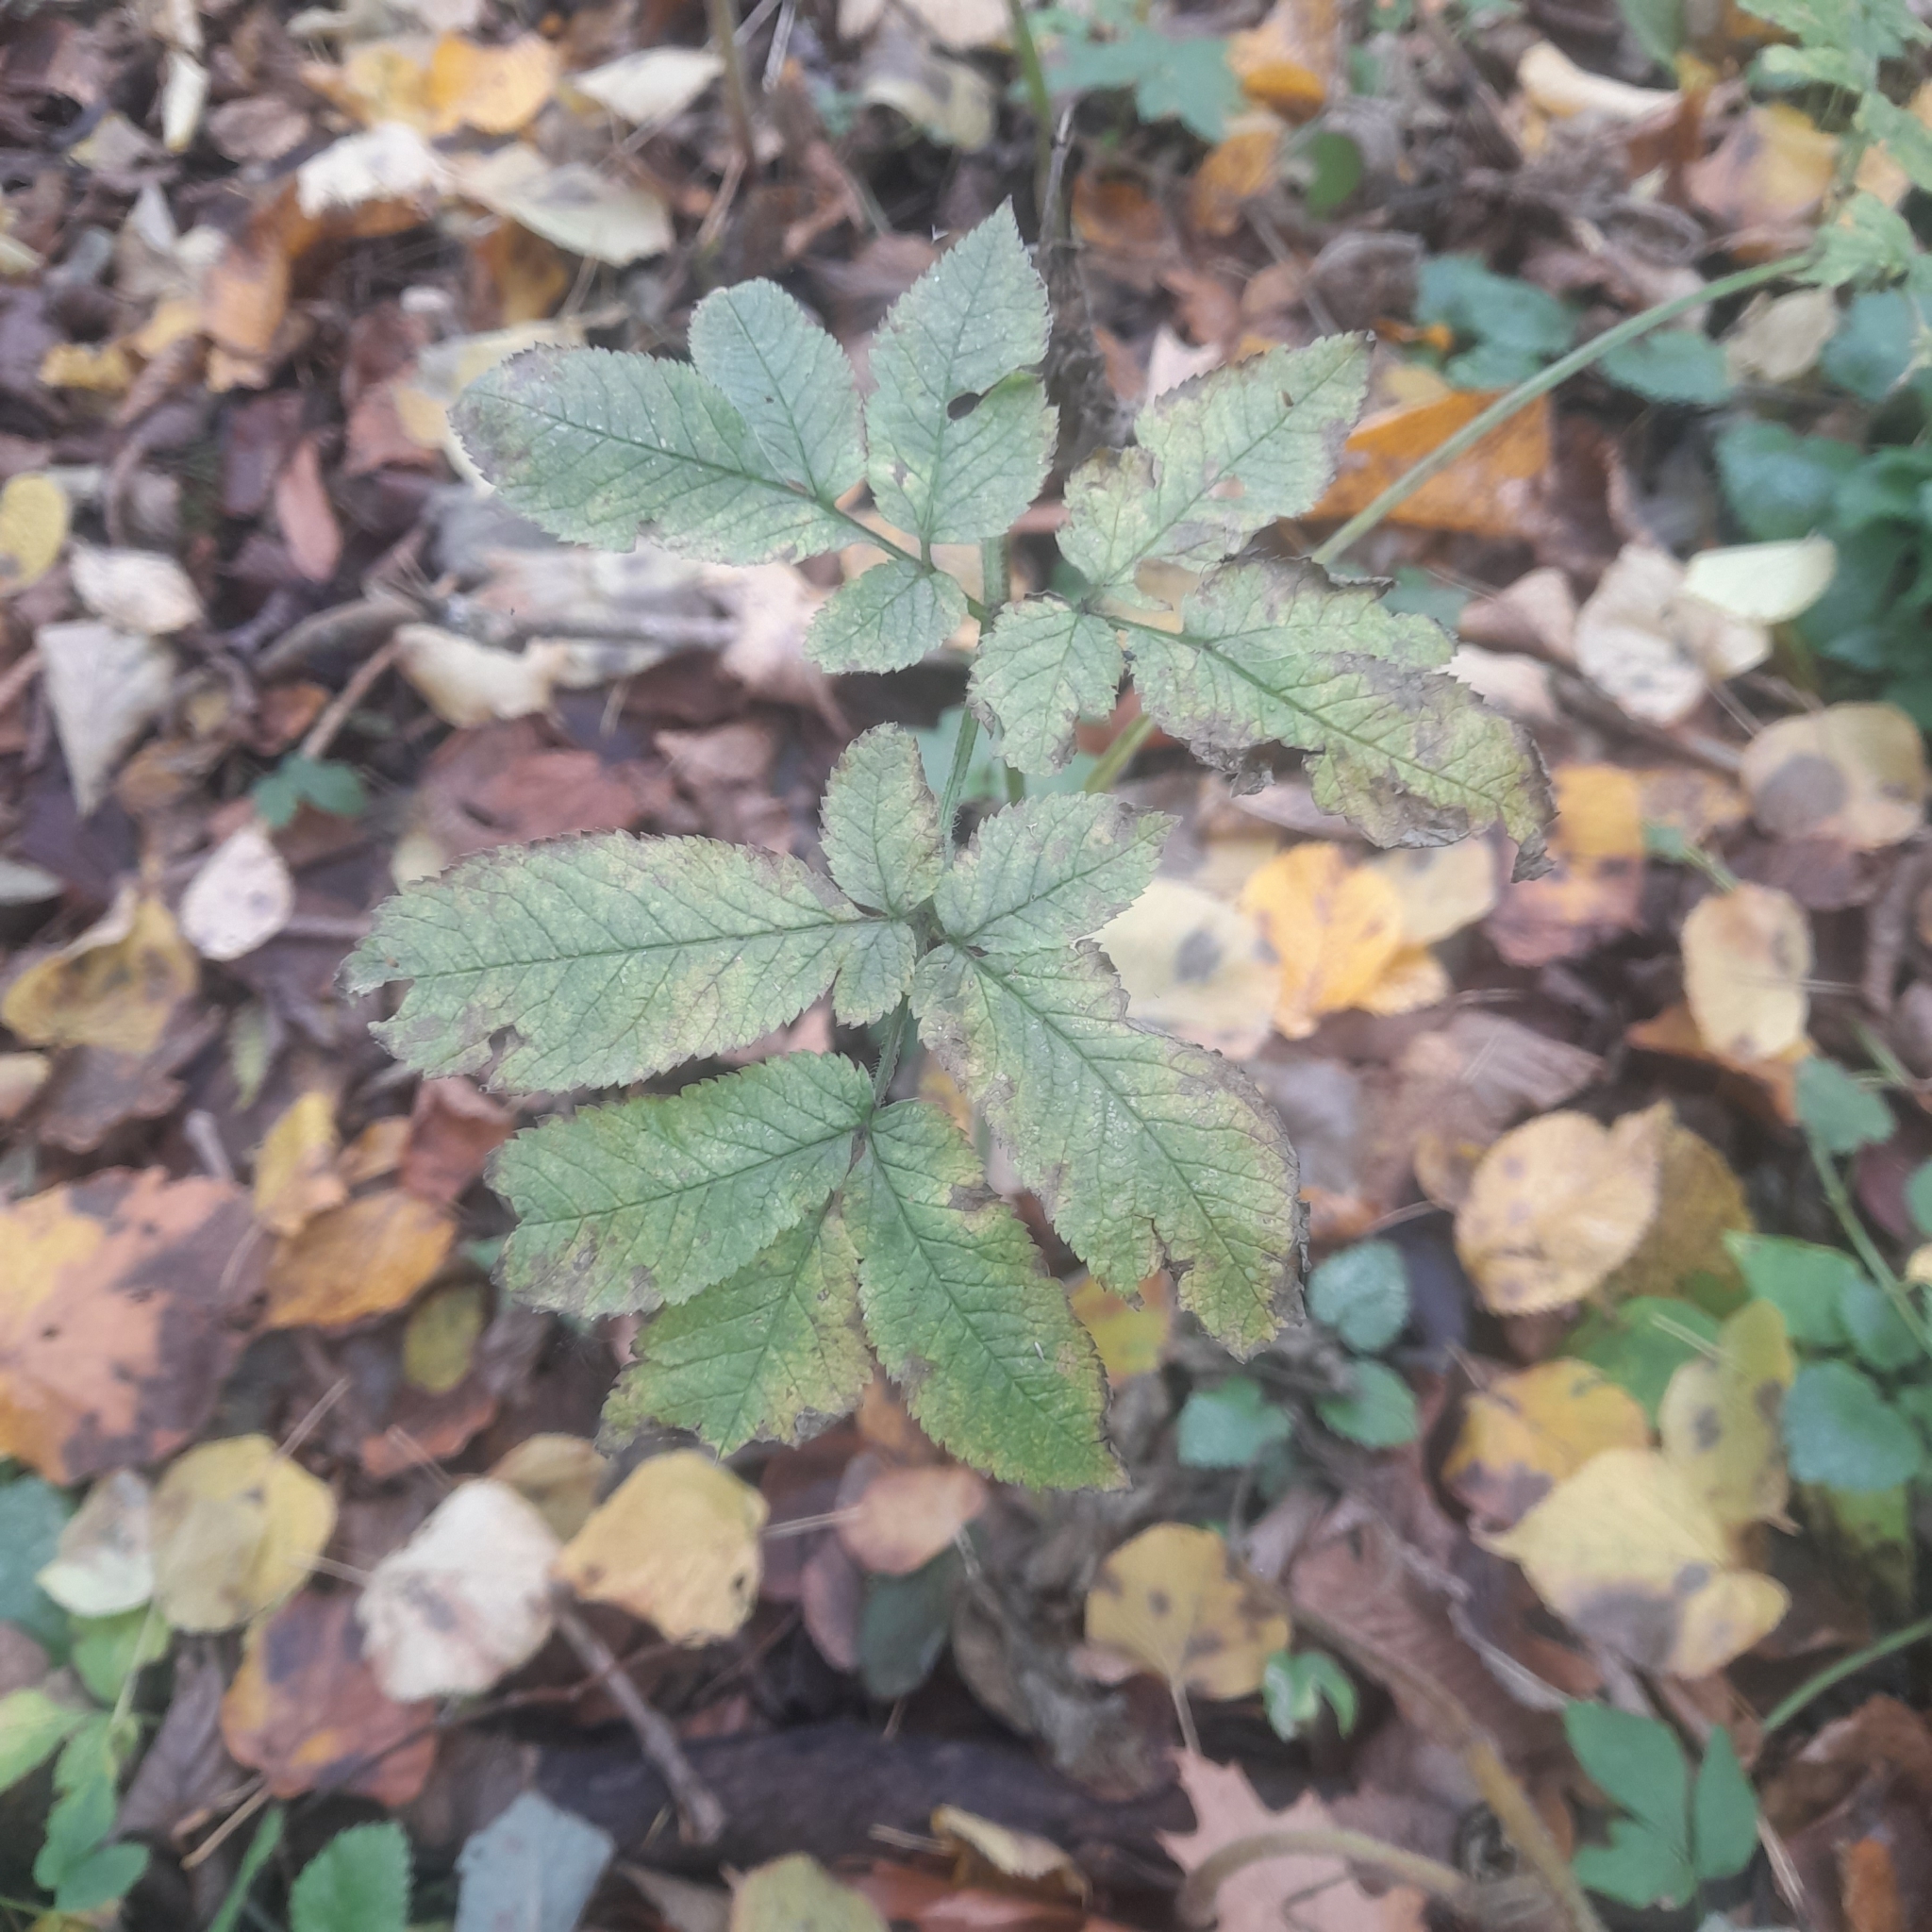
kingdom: Plantae
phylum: Tracheophyta
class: Magnoliopsida
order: Apiales
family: Apiaceae
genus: Chaerophyllum
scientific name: Chaerophyllum aromaticum
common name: Broadleaf chervil
